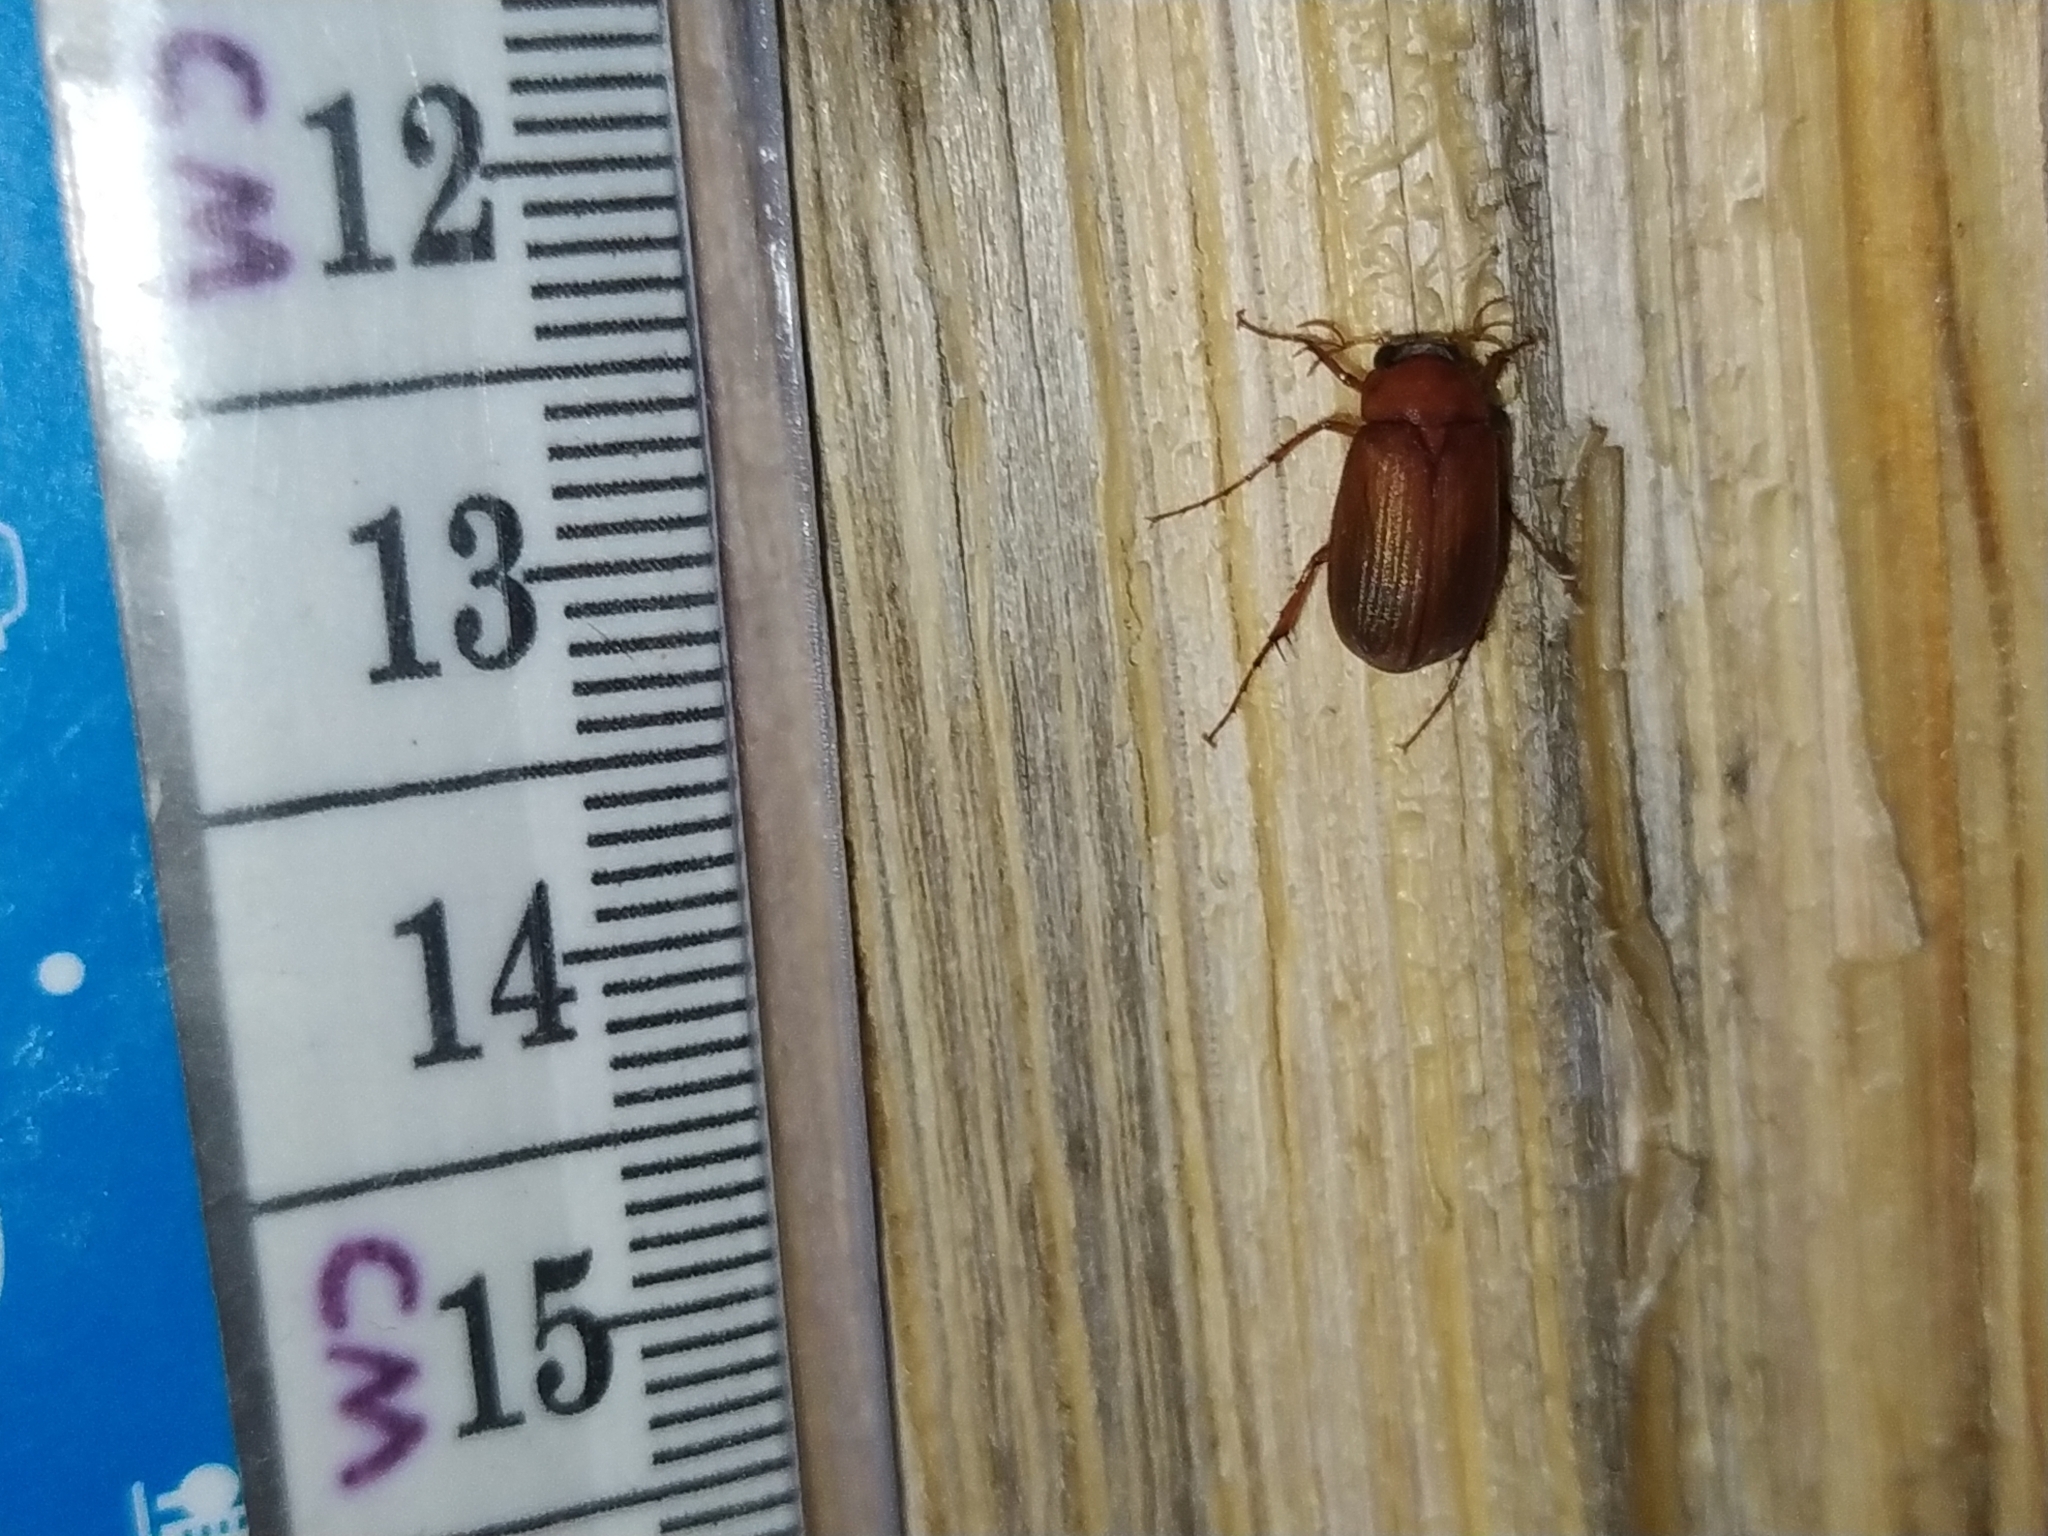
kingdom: Animalia
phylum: Arthropoda
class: Insecta
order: Coleoptera
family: Scarabaeidae
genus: Serica
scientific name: Serica brunnea
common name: Brown chafer
